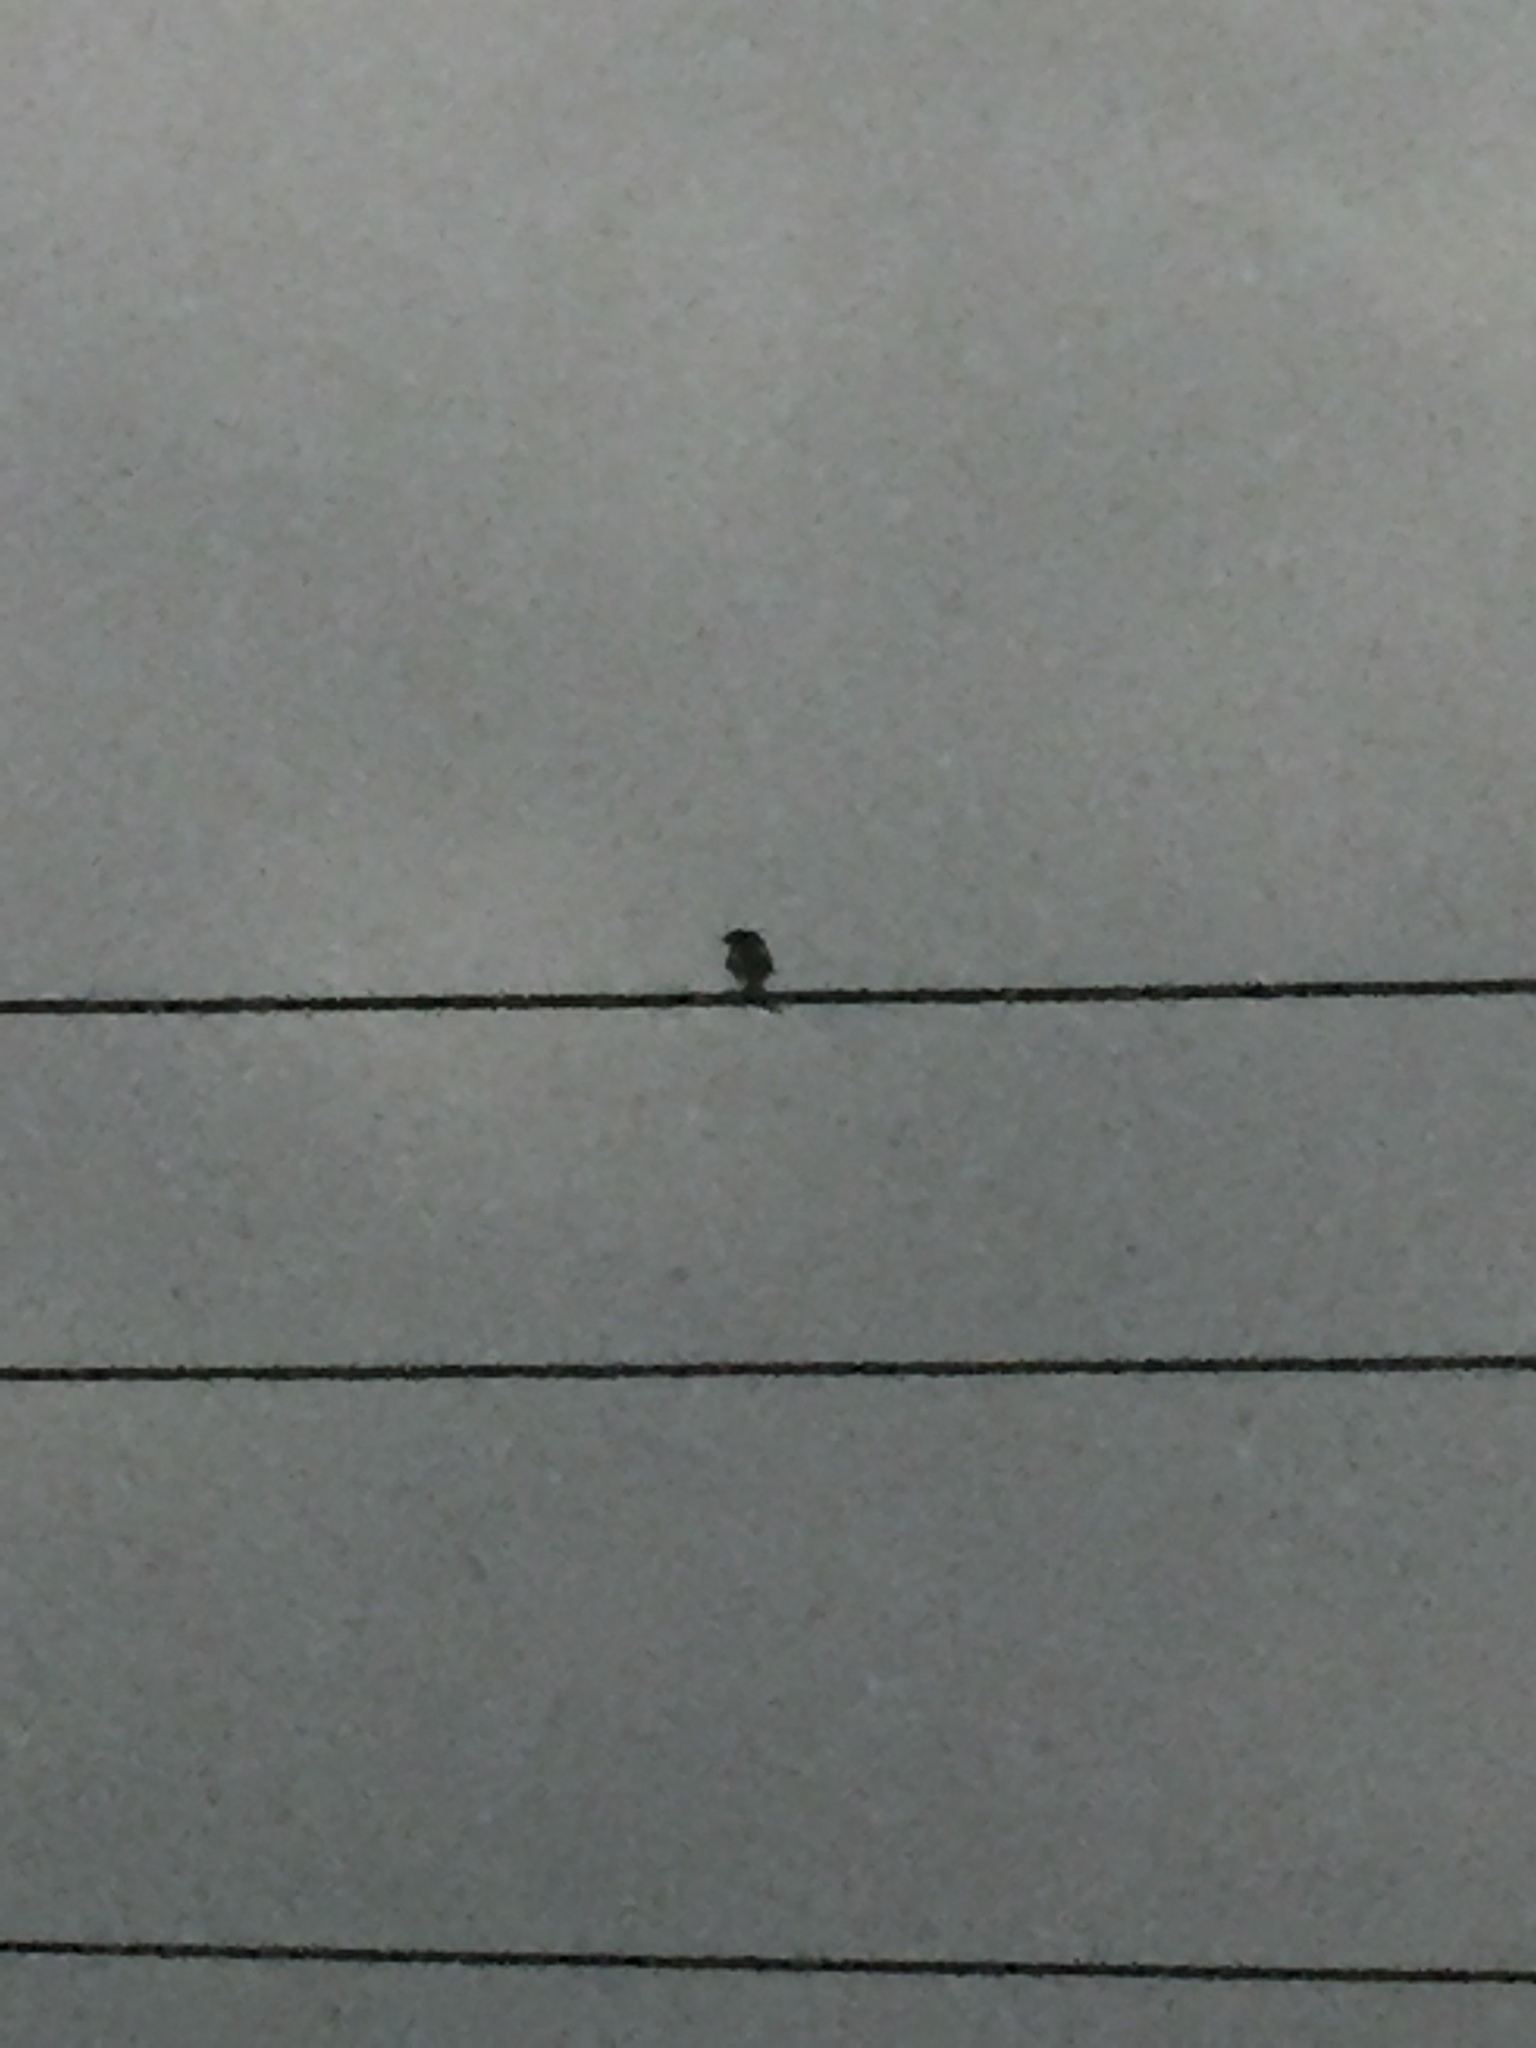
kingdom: Animalia
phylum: Chordata
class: Aves
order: Passeriformes
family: Dicruridae
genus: Dicrurus
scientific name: Dicrurus
